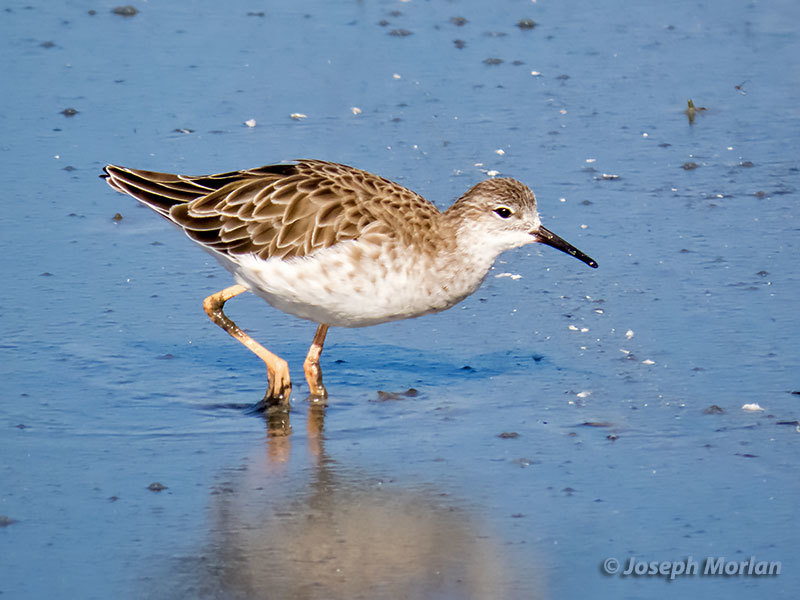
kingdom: Animalia
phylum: Chordata
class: Aves
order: Charadriiformes
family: Scolopacidae
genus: Calidris
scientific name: Calidris pugnax
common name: Ruff
